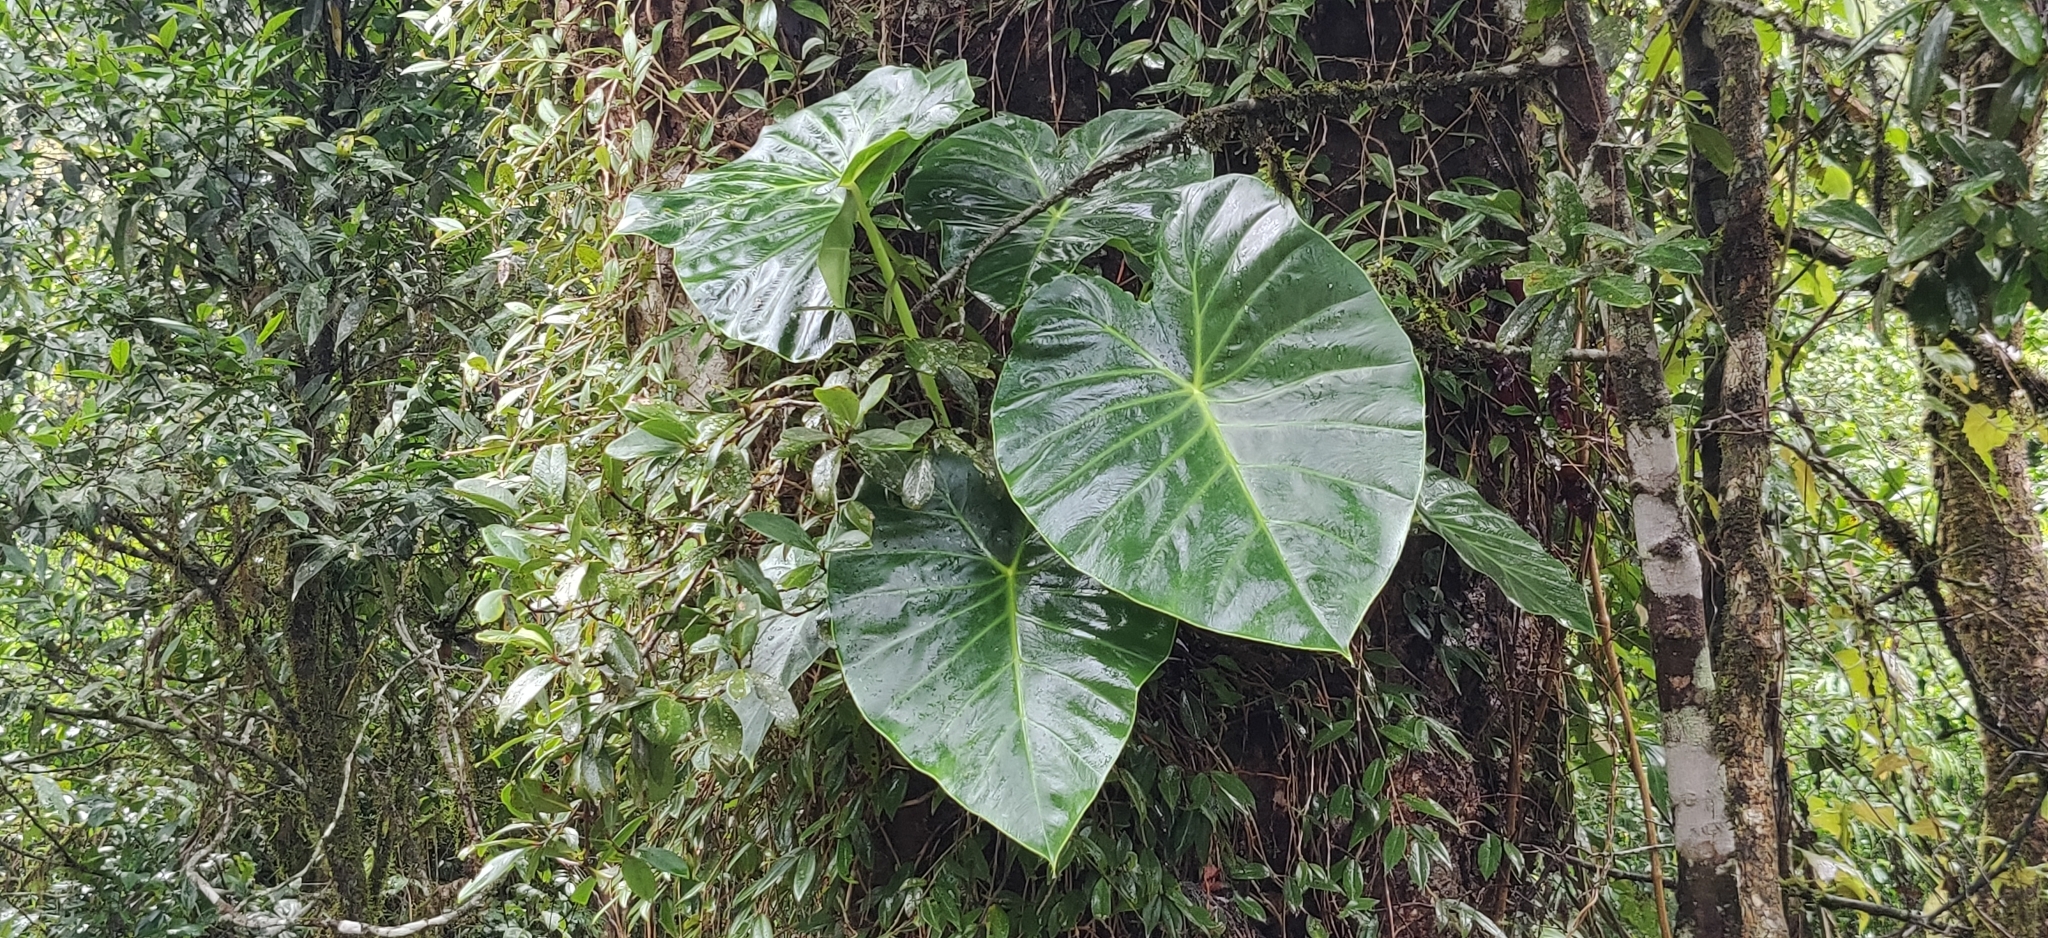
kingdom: Plantae
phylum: Tracheophyta
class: Liliopsida
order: Alismatales
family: Araceae
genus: Remusatia
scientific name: Remusatia vivipara
